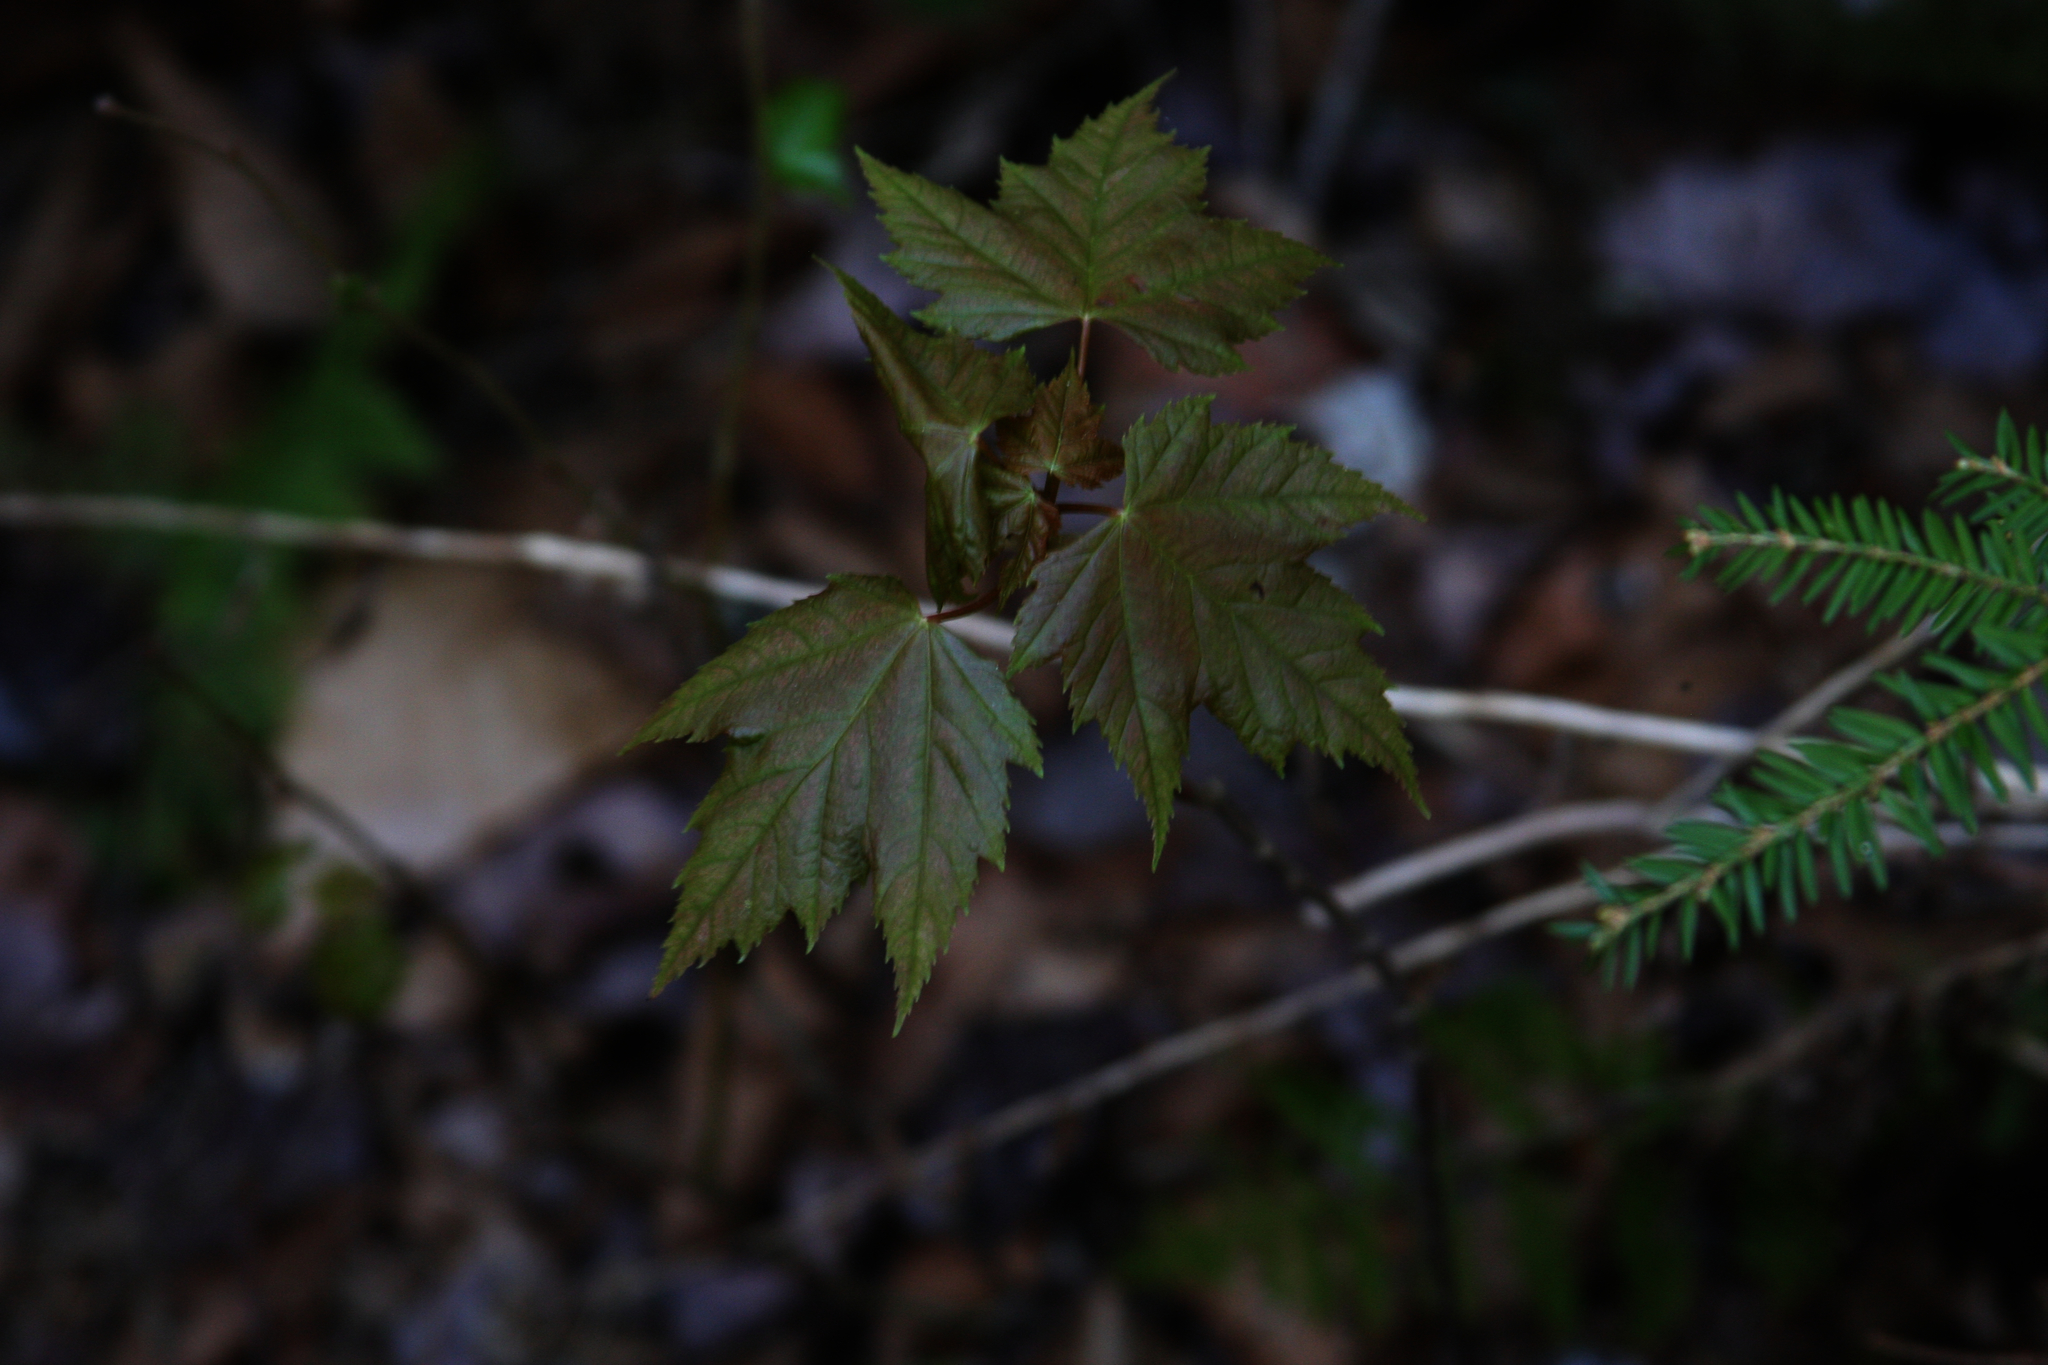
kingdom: Plantae
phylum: Tracheophyta
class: Magnoliopsida
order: Sapindales
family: Sapindaceae
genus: Acer
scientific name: Acer rubrum
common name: Red maple
